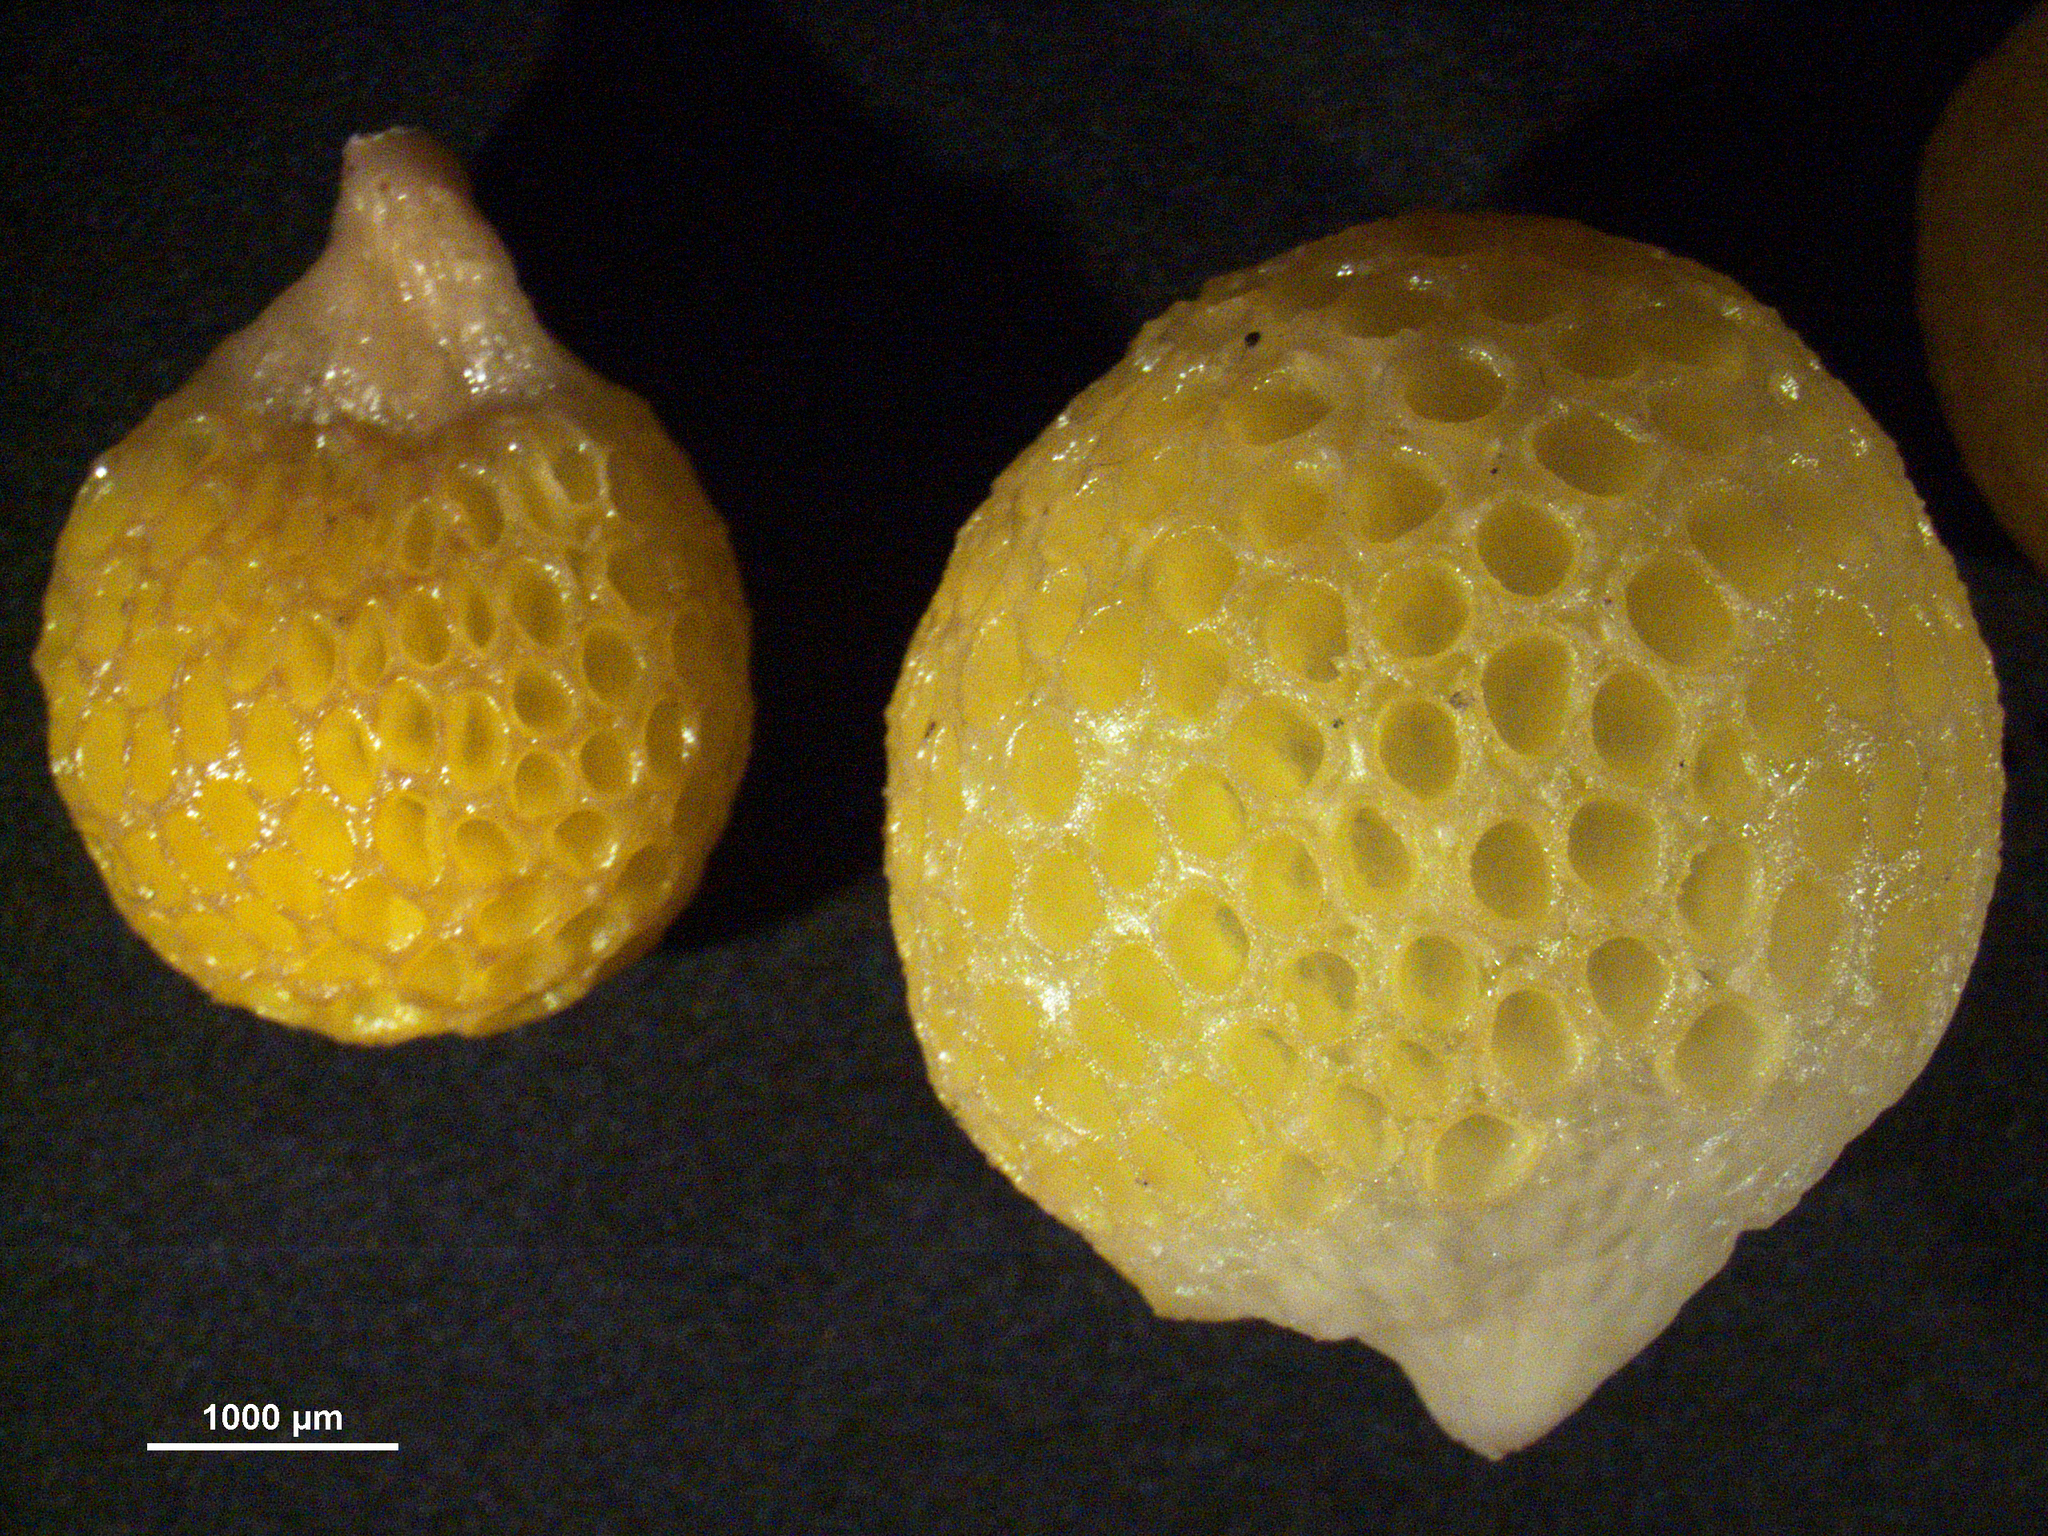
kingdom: Fungi
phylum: Ascomycota
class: Leotiomycetes
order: Cyttariales
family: Cyttariaceae
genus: Cyttaria
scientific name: Cyttaria gunnii
